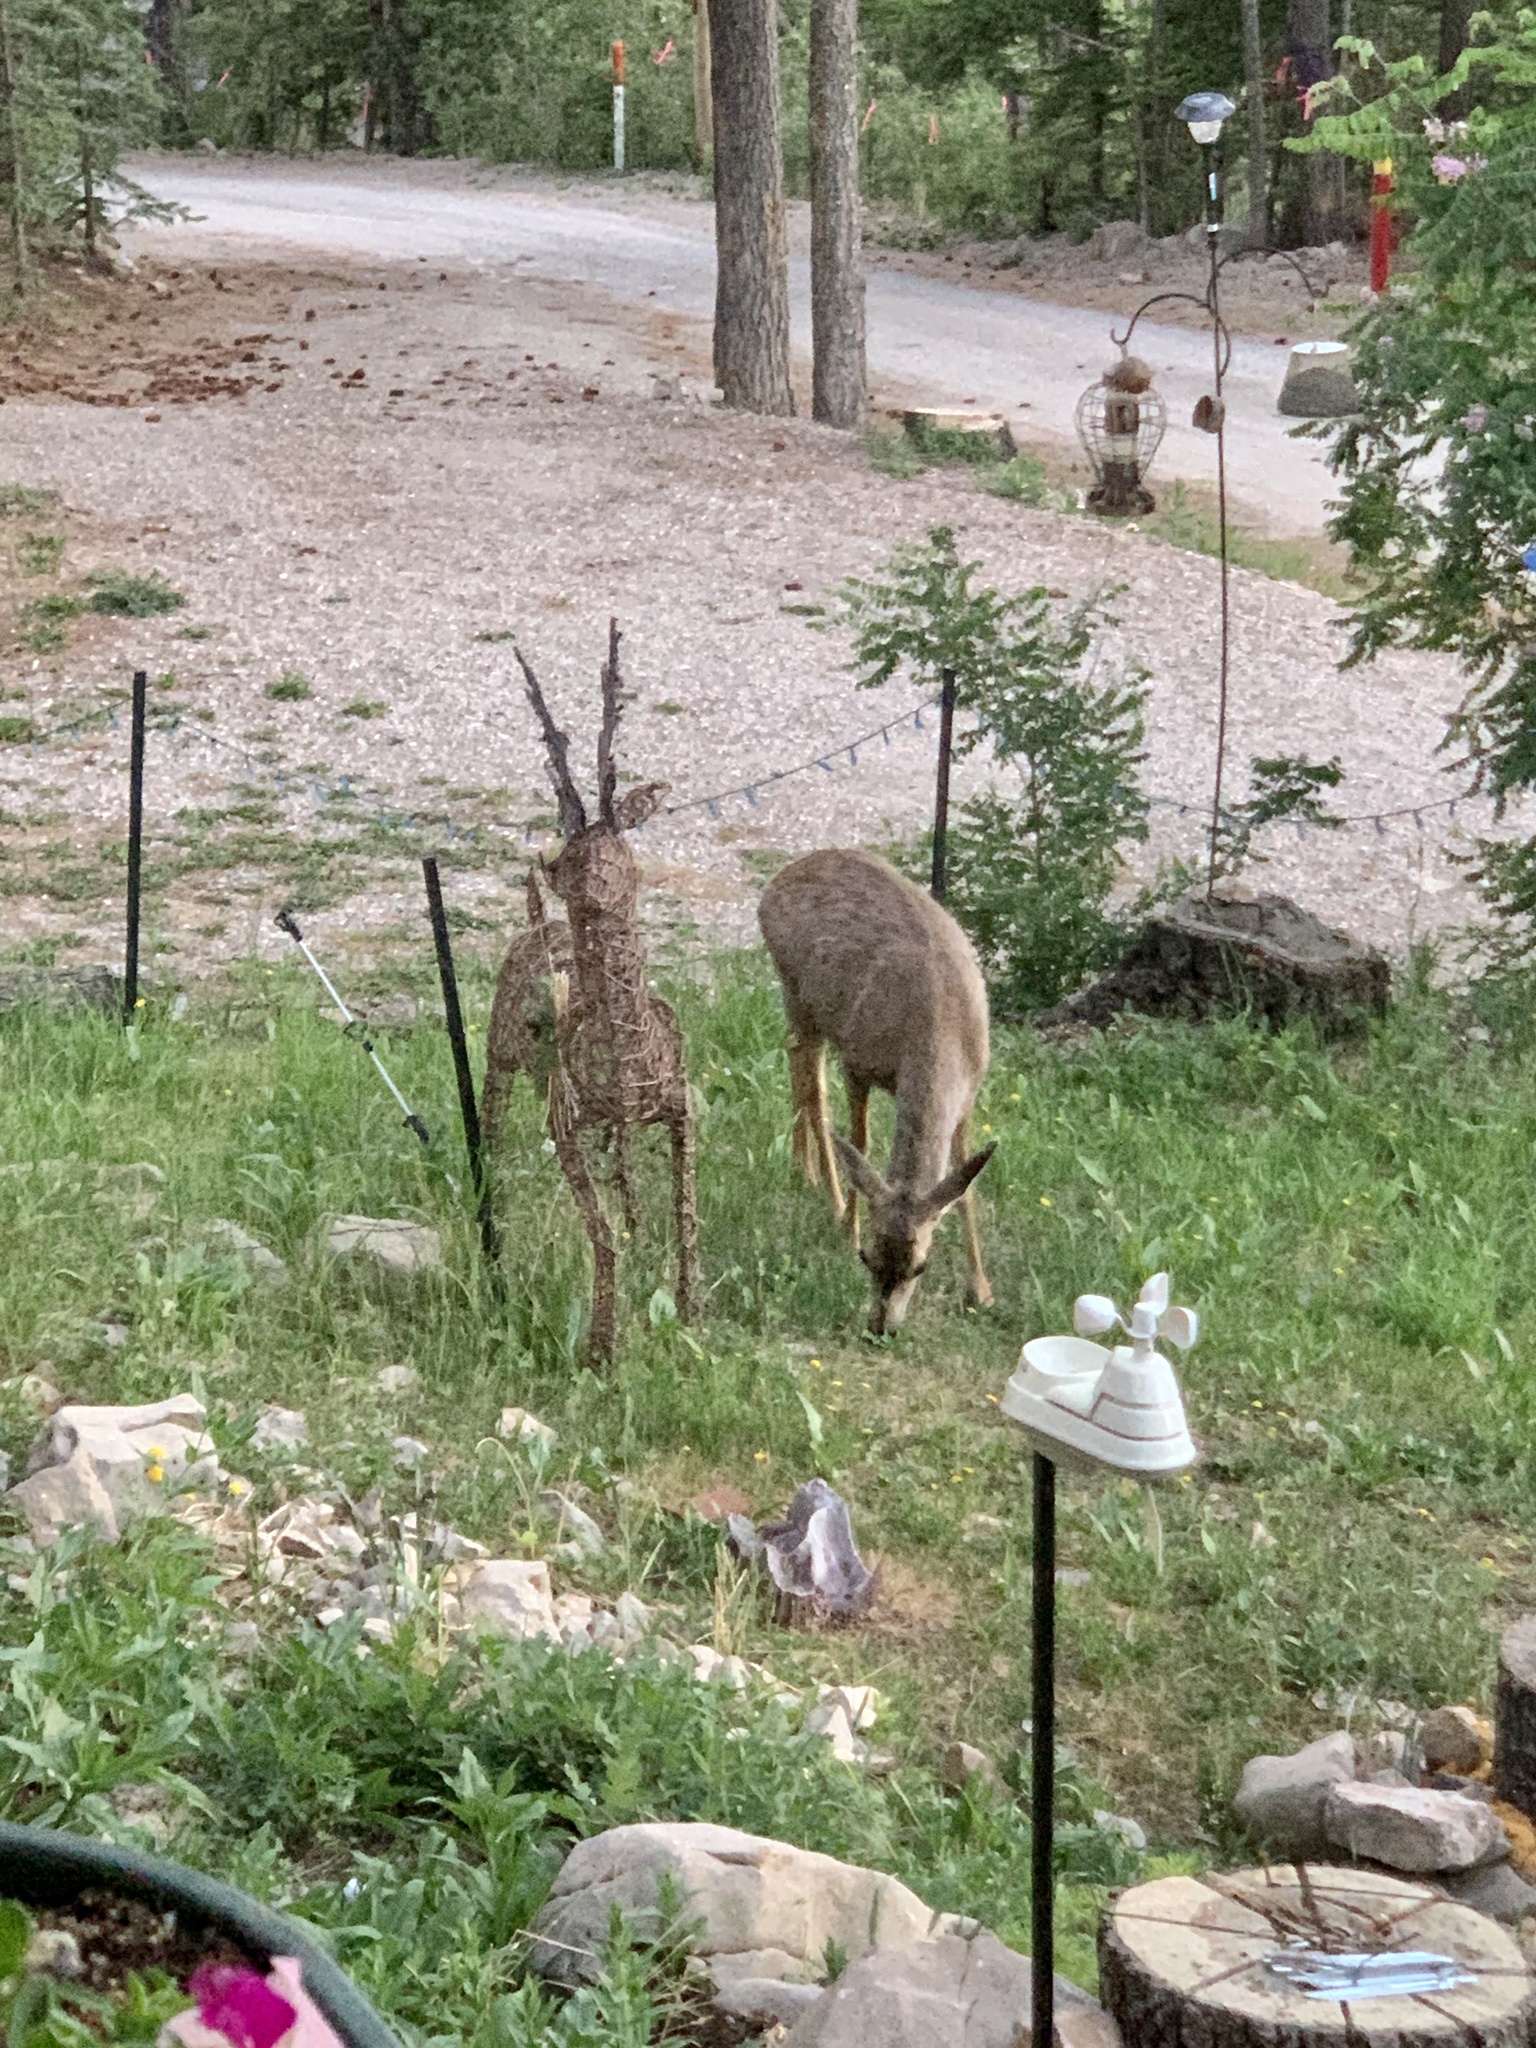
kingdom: Animalia
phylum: Chordata
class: Mammalia
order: Artiodactyla
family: Cervidae
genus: Odocoileus
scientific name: Odocoileus hemionus
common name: Mule deer
